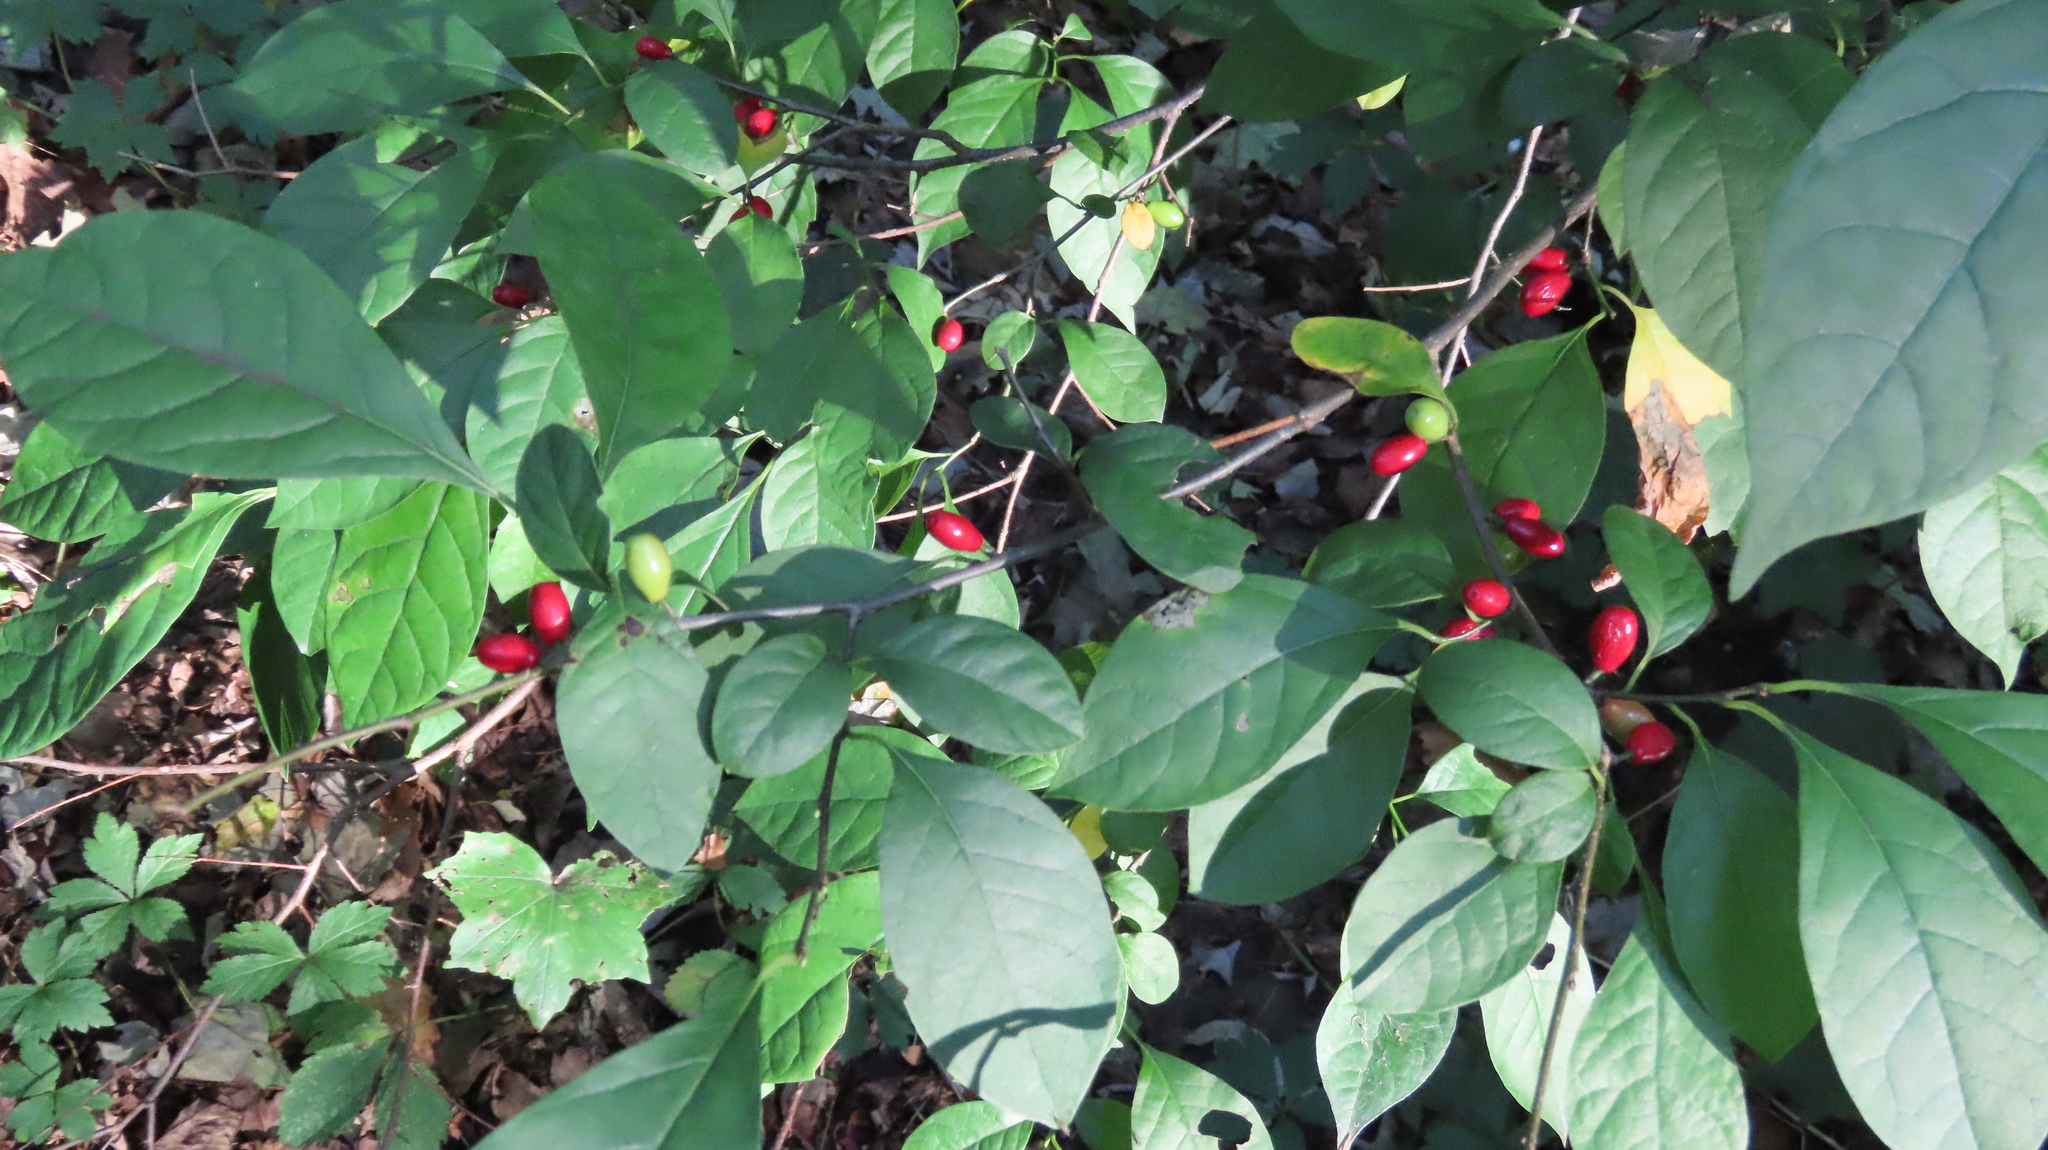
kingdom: Plantae
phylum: Tracheophyta
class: Magnoliopsida
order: Laurales
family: Lauraceae
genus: Lindera
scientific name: Lindera benzoin
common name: Spicebush
